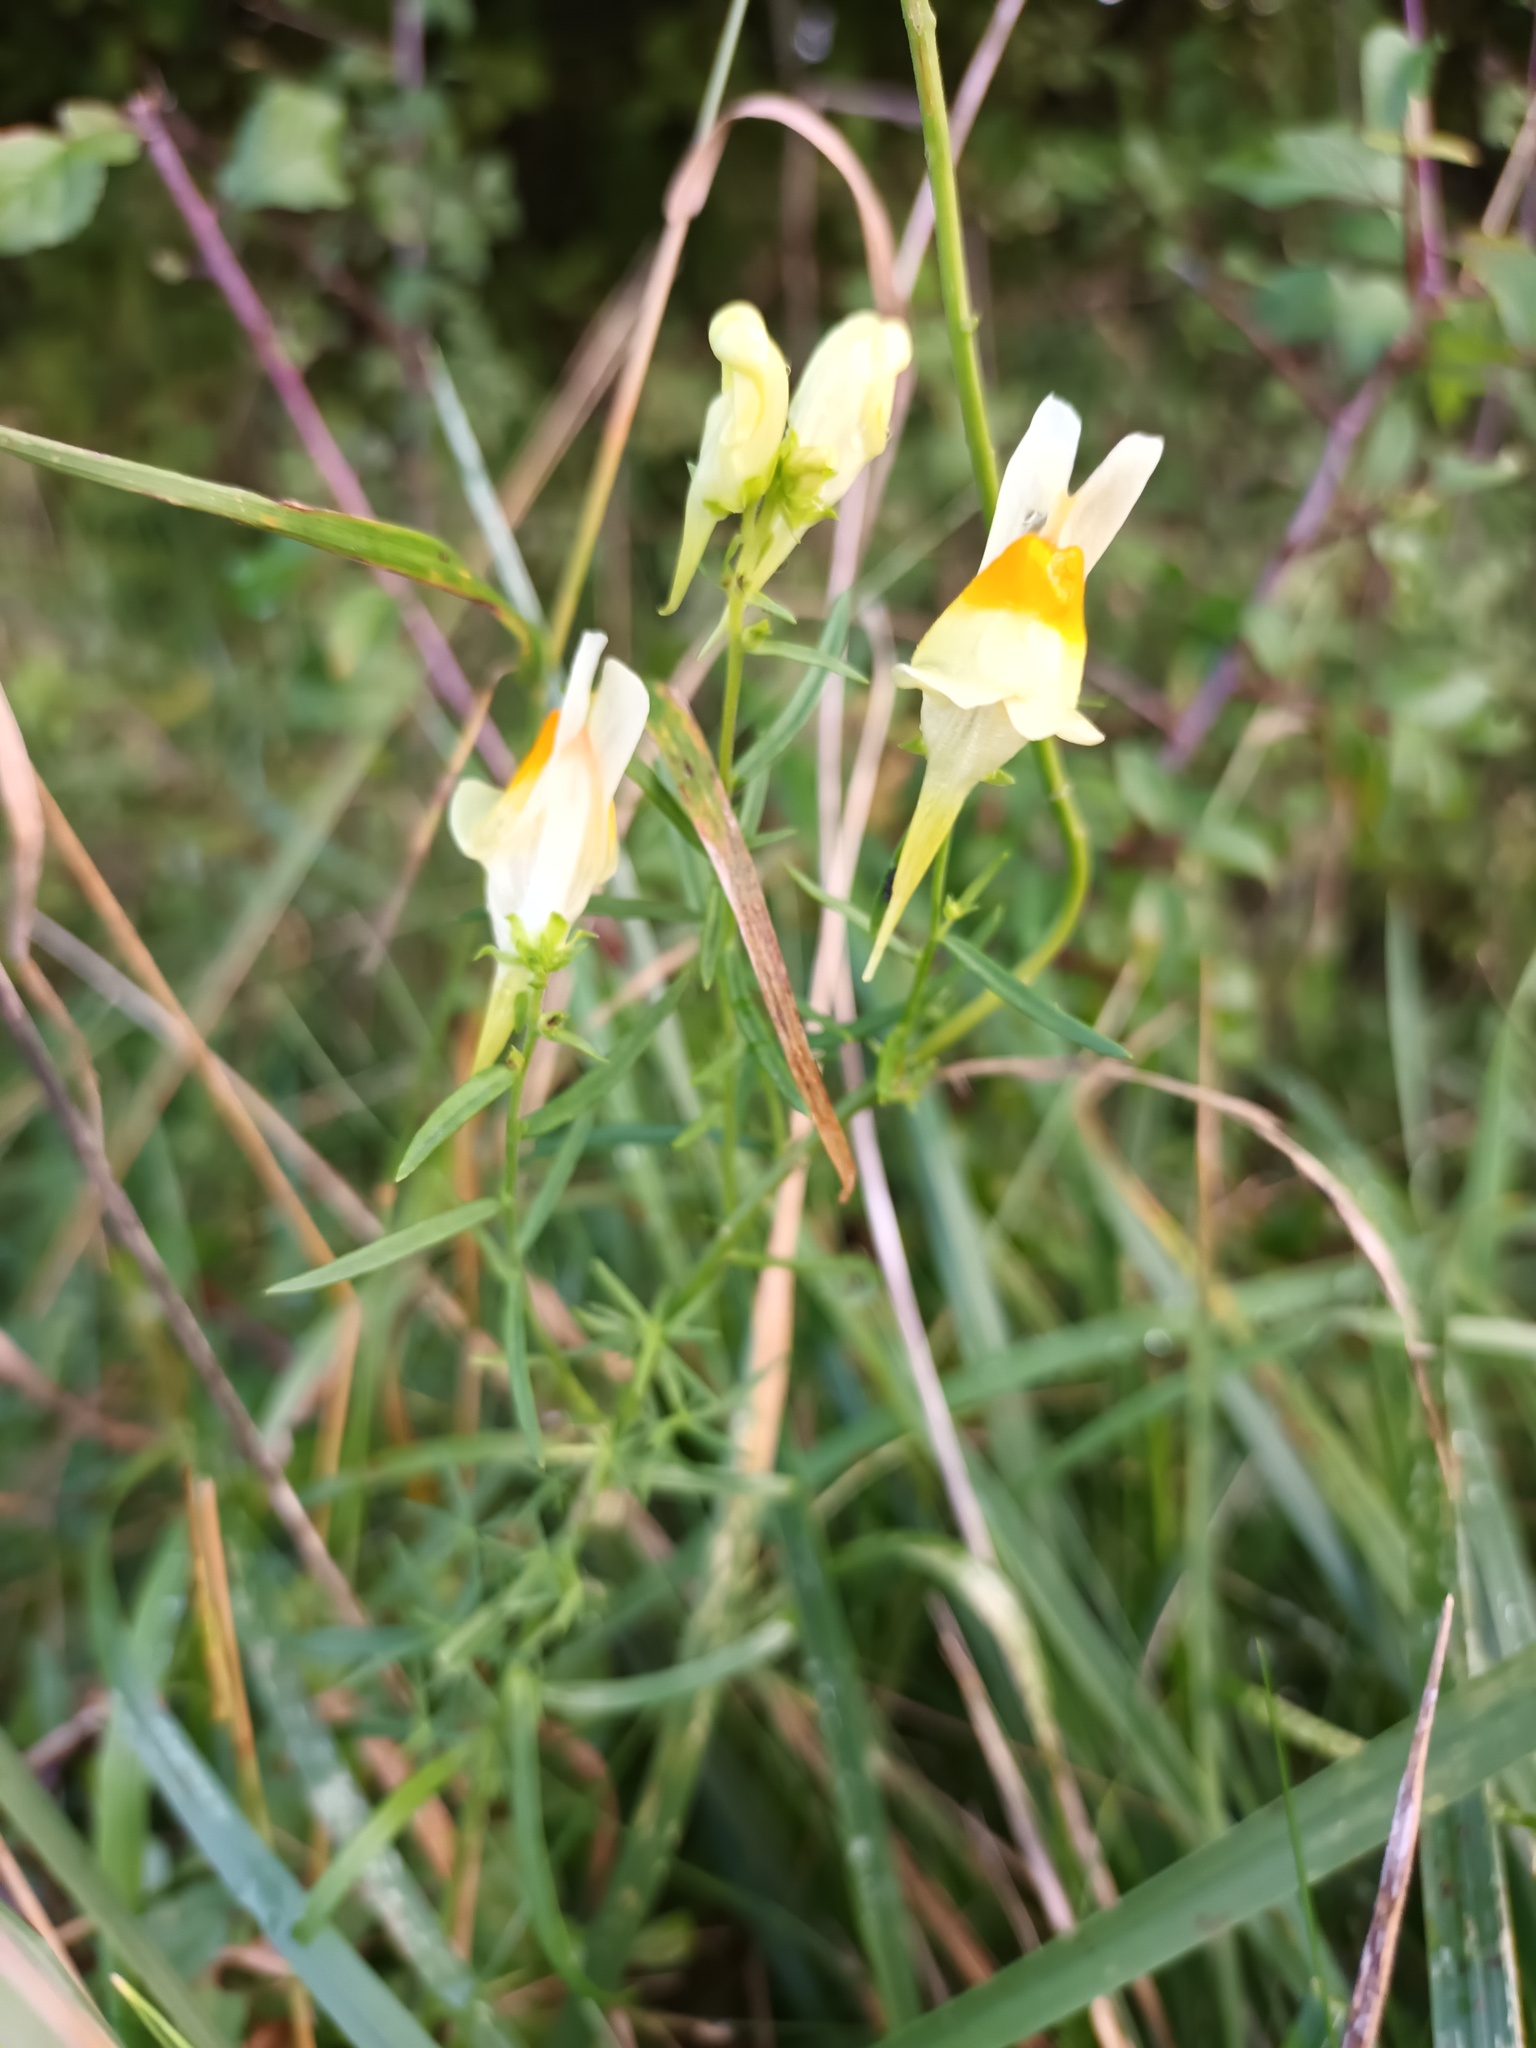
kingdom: Plantae
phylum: Tracheophyta
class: Magnoliopsida
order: Lamiales
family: Plantaginaceae
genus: Linaria
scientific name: Linaria vulgaris
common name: Butter and eggs
